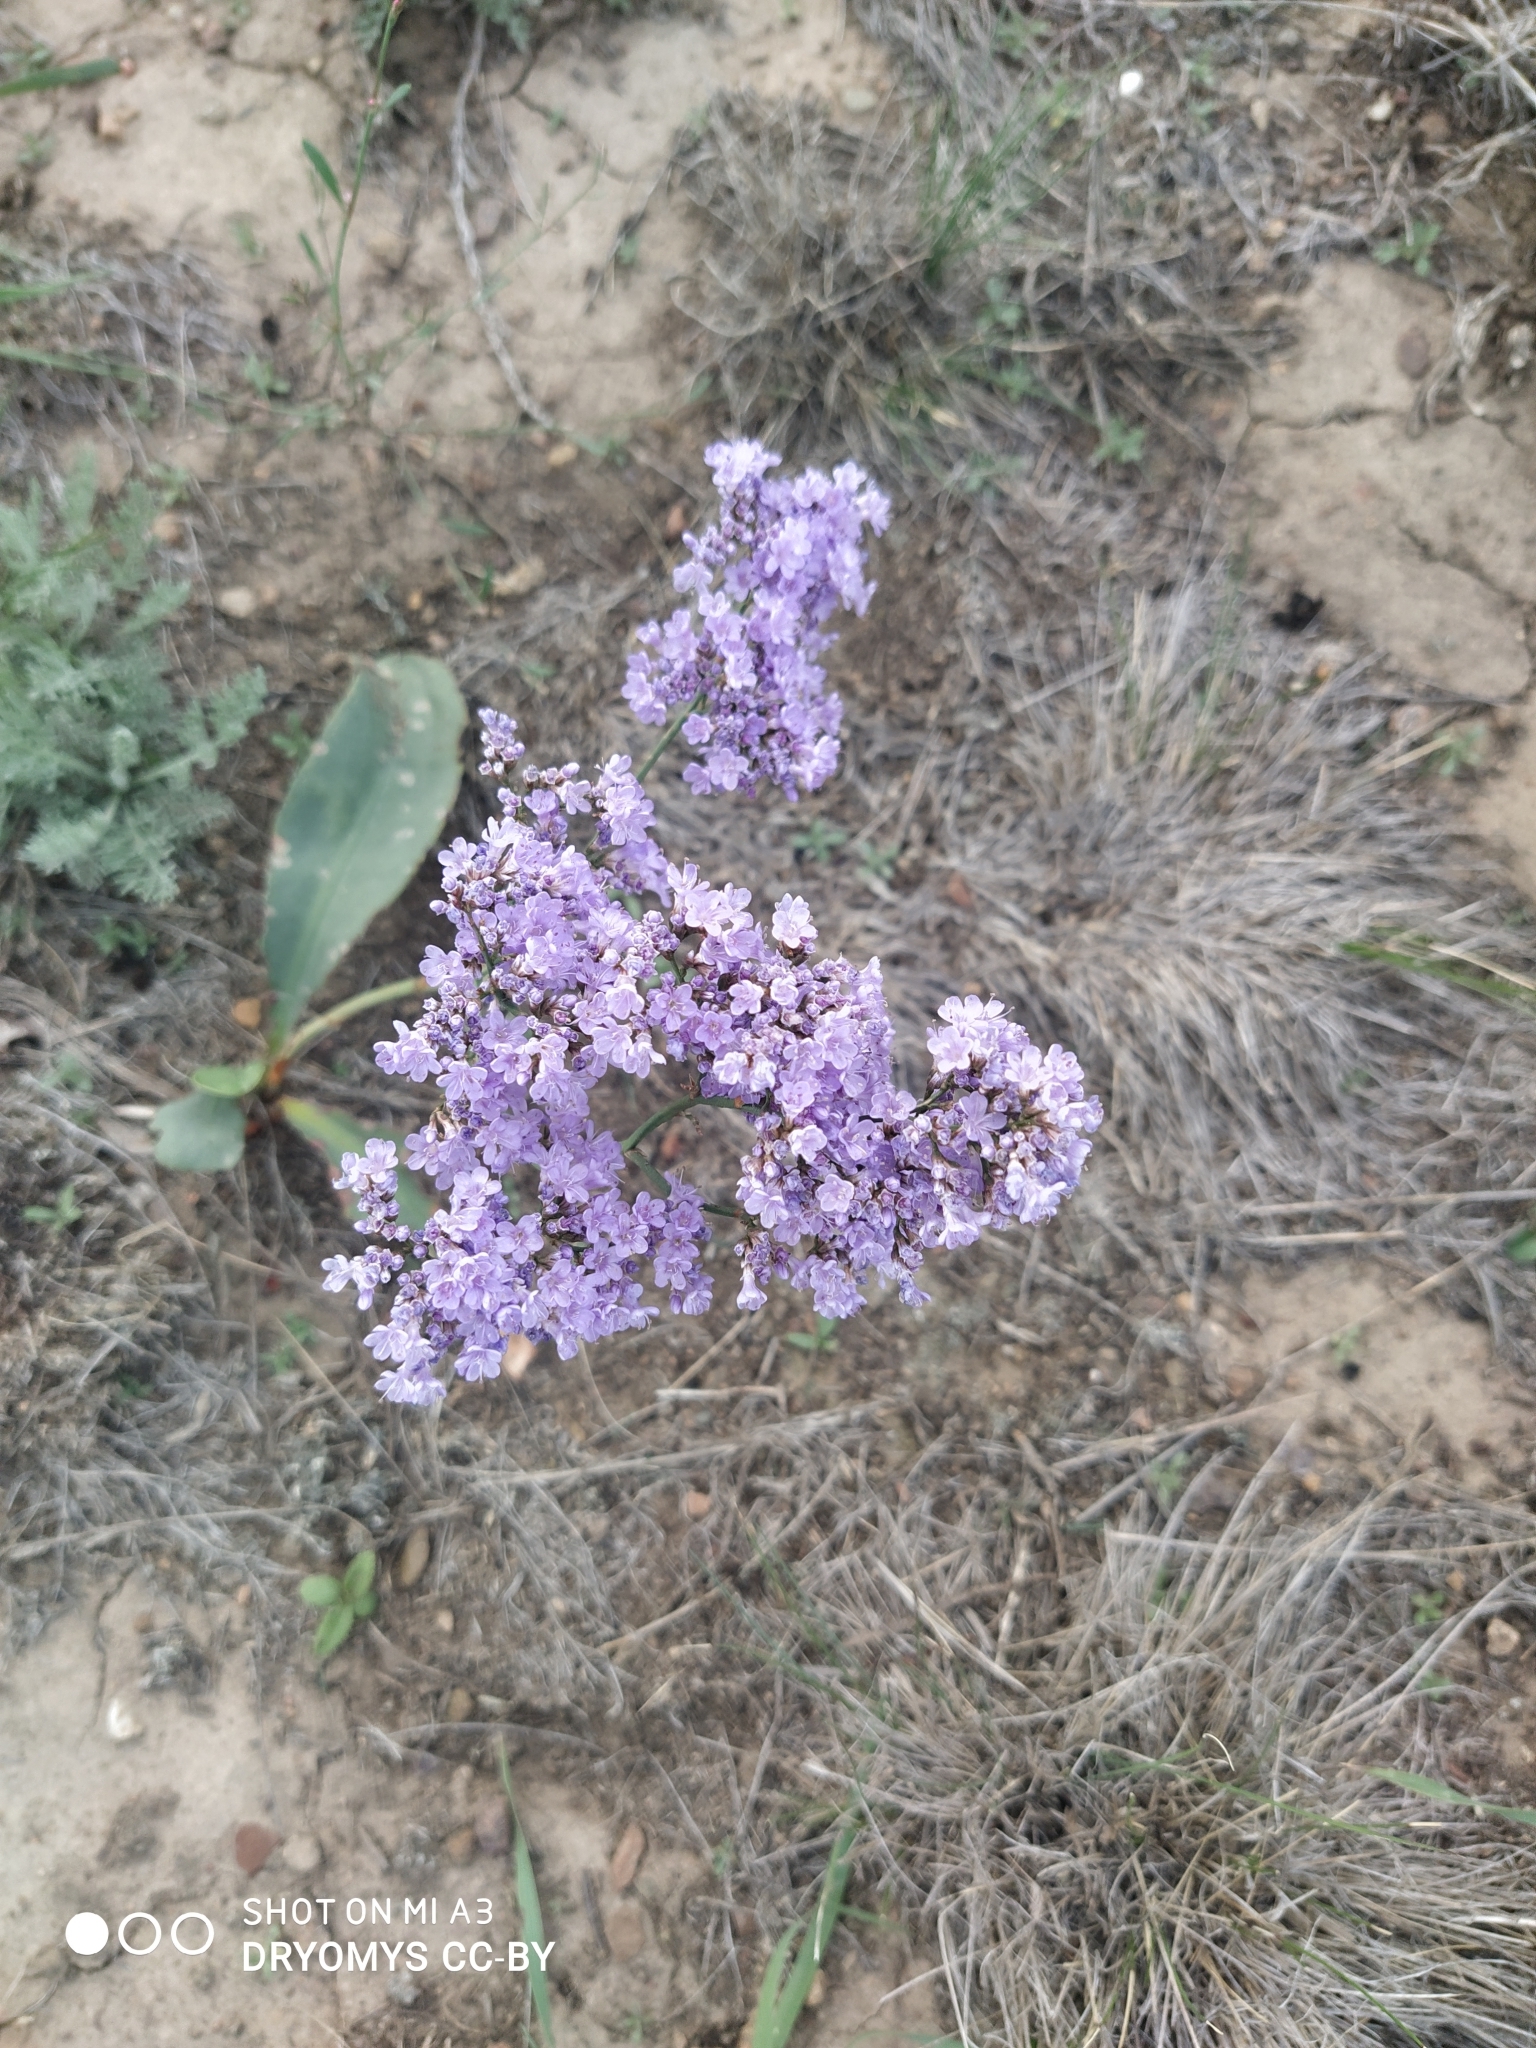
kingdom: Plantae
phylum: Tracheophyta
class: Magnoliopsida
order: Caryophyllales
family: Plumbaginaceae
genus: Limonium
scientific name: Limonium gmelini
